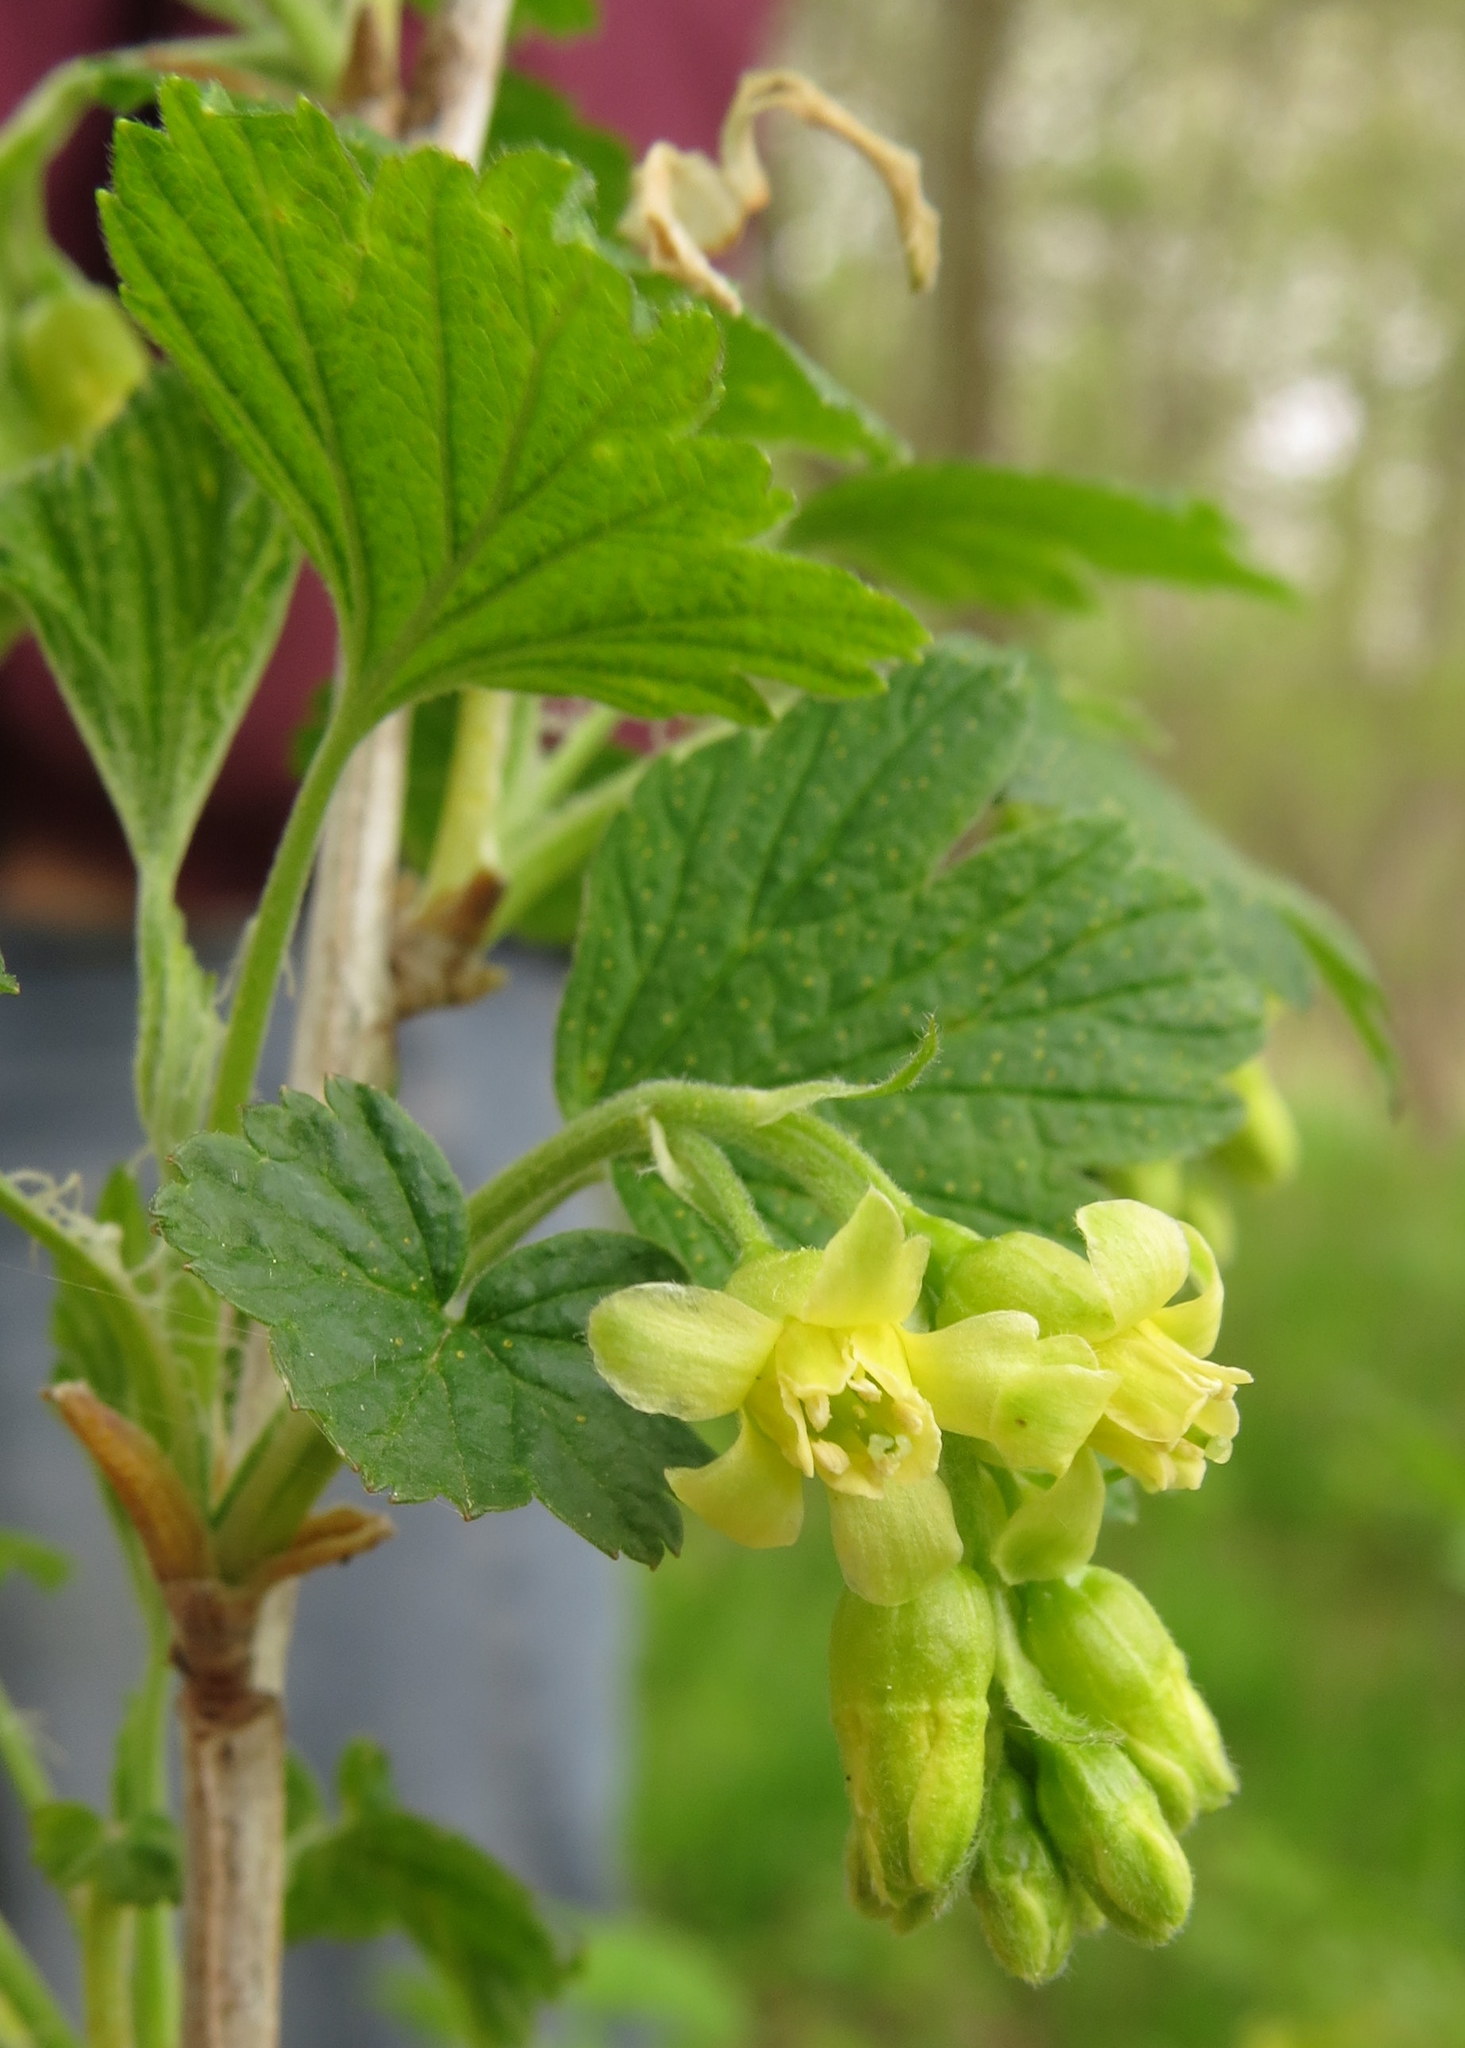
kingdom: Plantae
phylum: Tracheophyta
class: Magnoliopsida
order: Saxifragales
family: Grossulariaceae
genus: Ribes
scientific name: Ribes americanum
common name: American black currant
